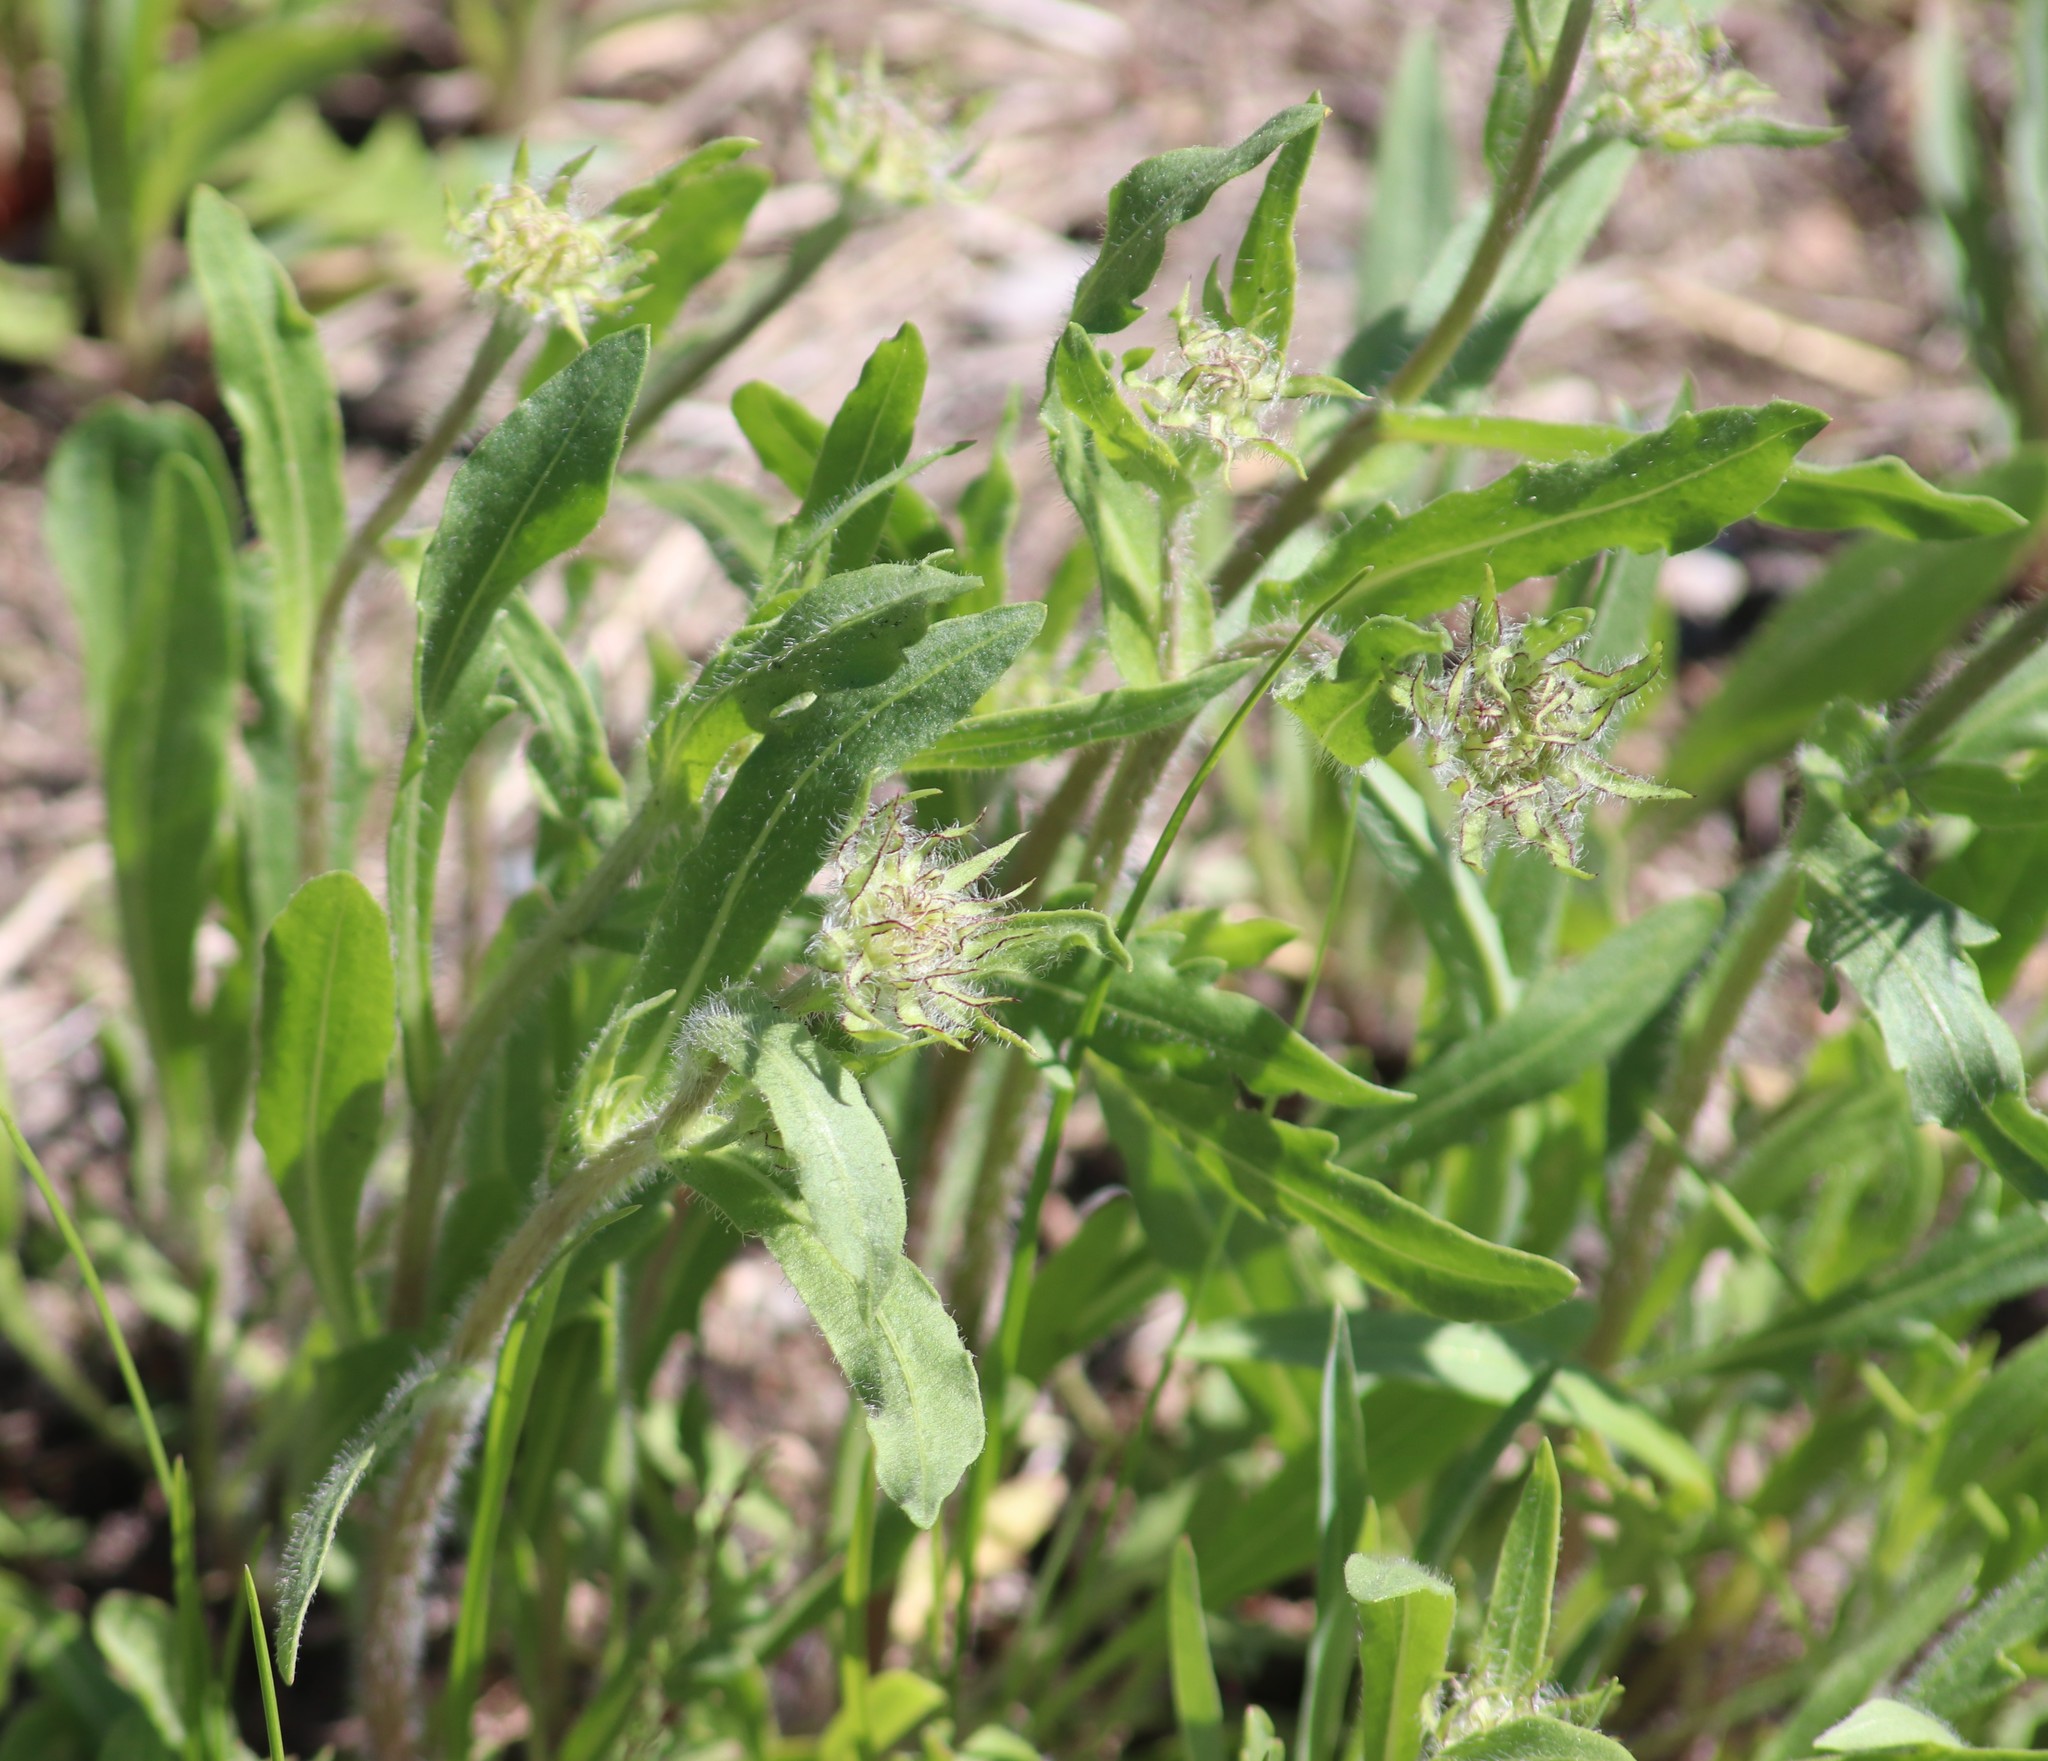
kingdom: Plantae
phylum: Tracheophyta
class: Magnoliopsida
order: Asterales
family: Asteraceae
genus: Gaillardia
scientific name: Gaillardia aristata
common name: Blanket-flower
